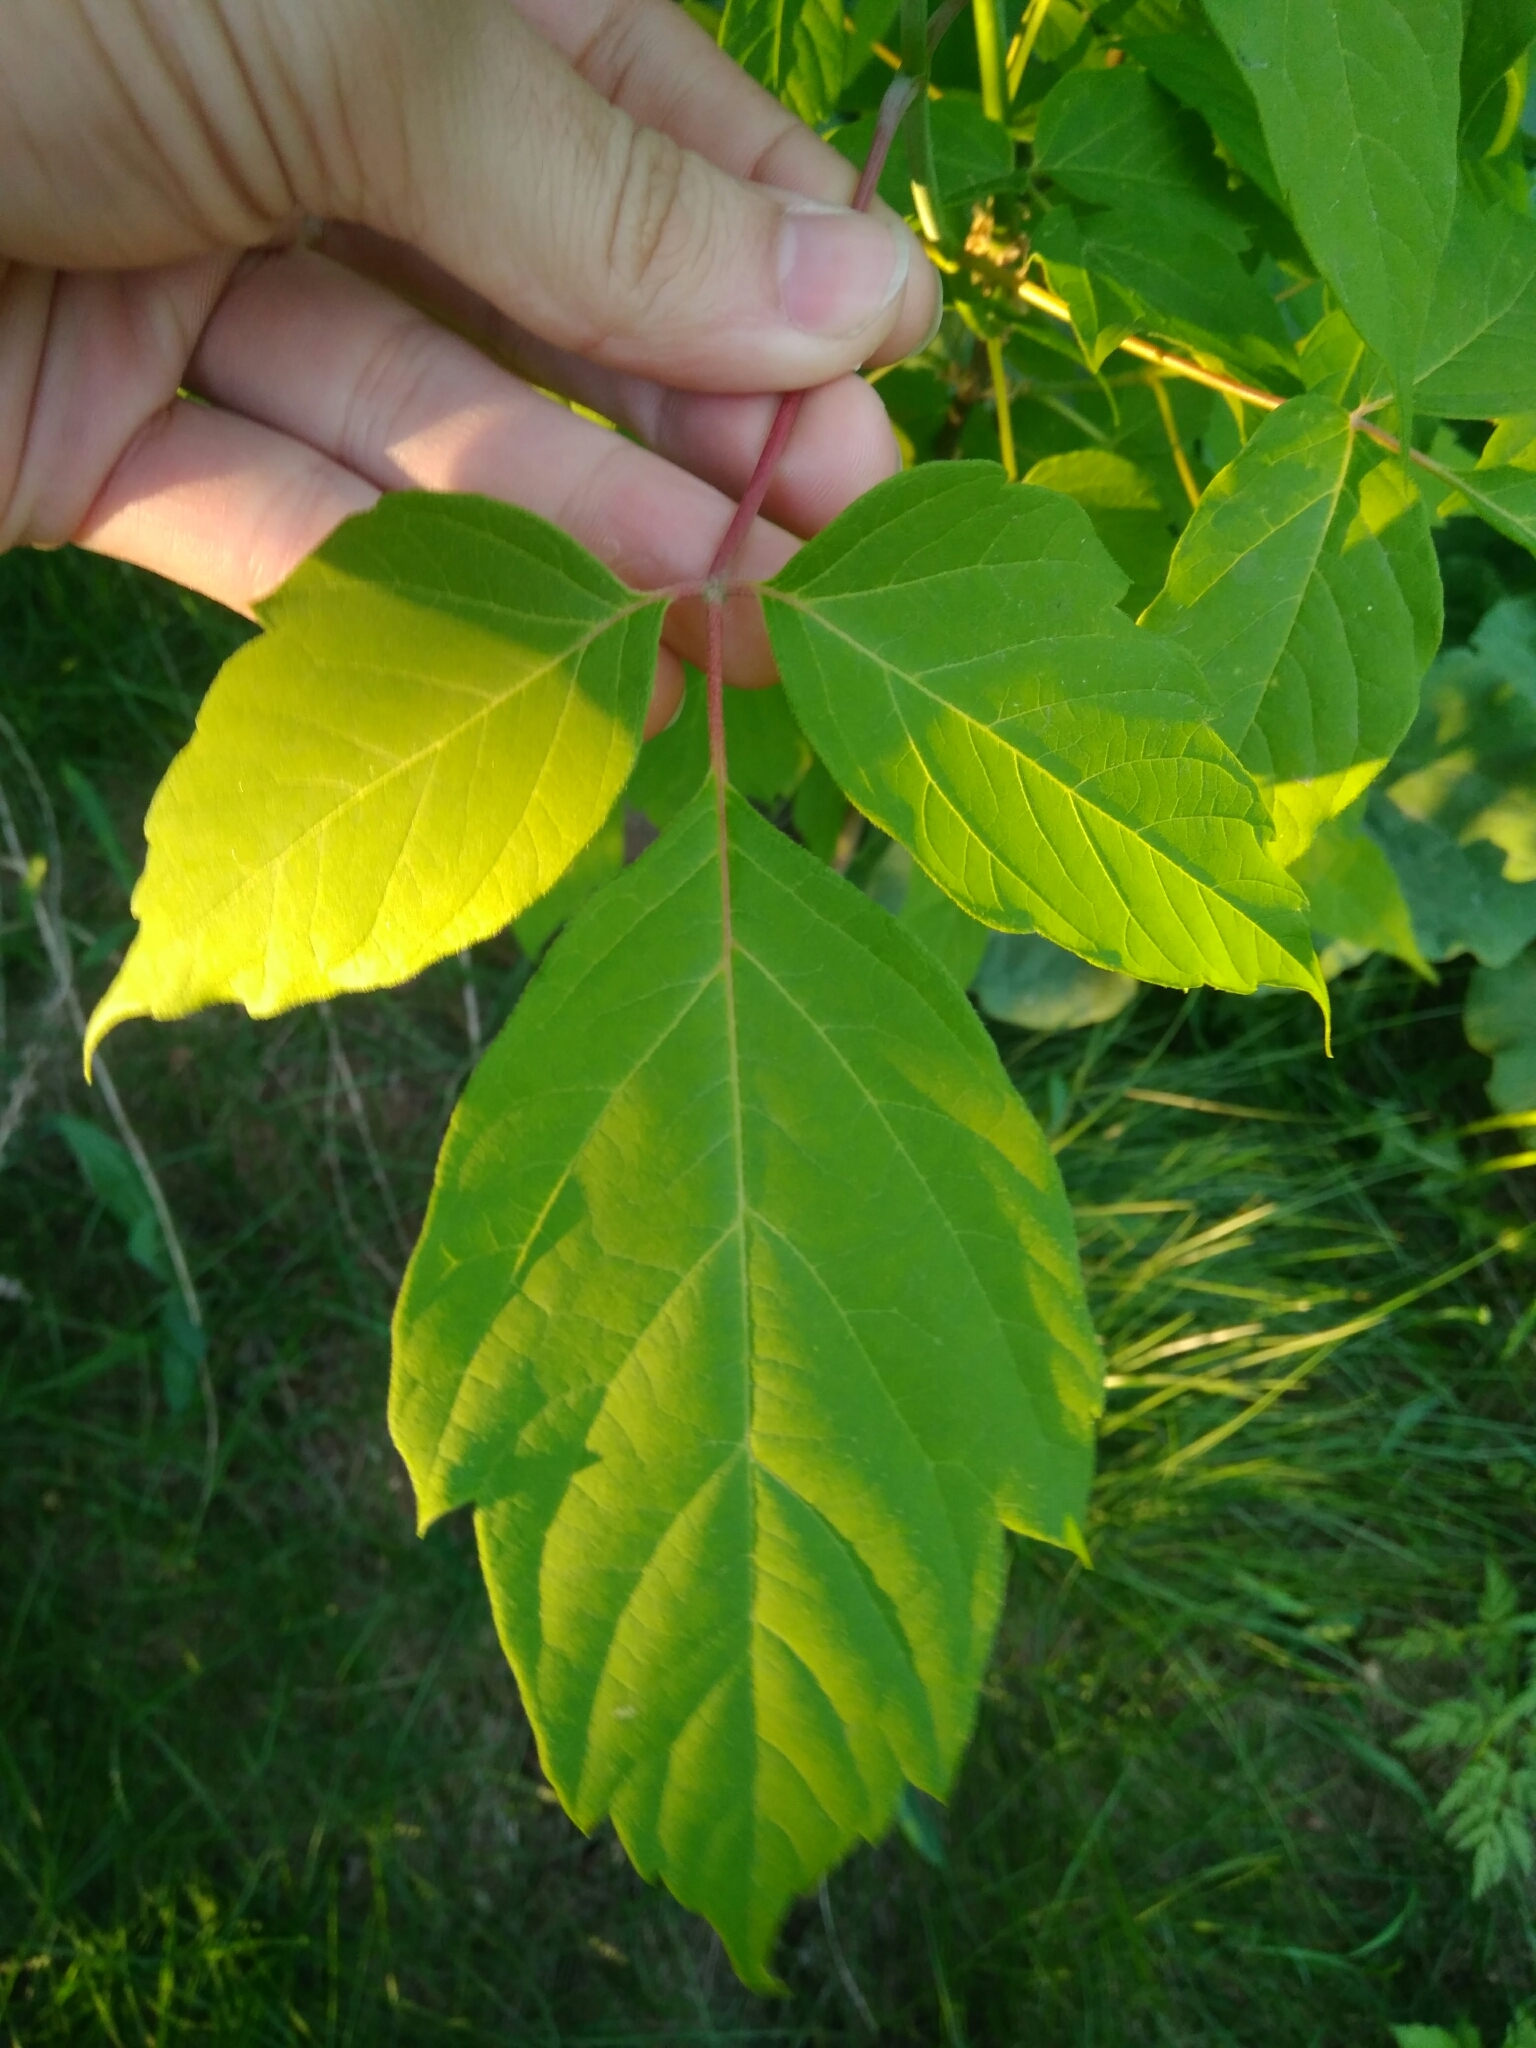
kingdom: Plantae
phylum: Tracheophyta
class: Magnoliopsida
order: Sapindales
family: Sapindaceae
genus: Acer
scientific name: Acer negundo
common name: Ashleaf maple
